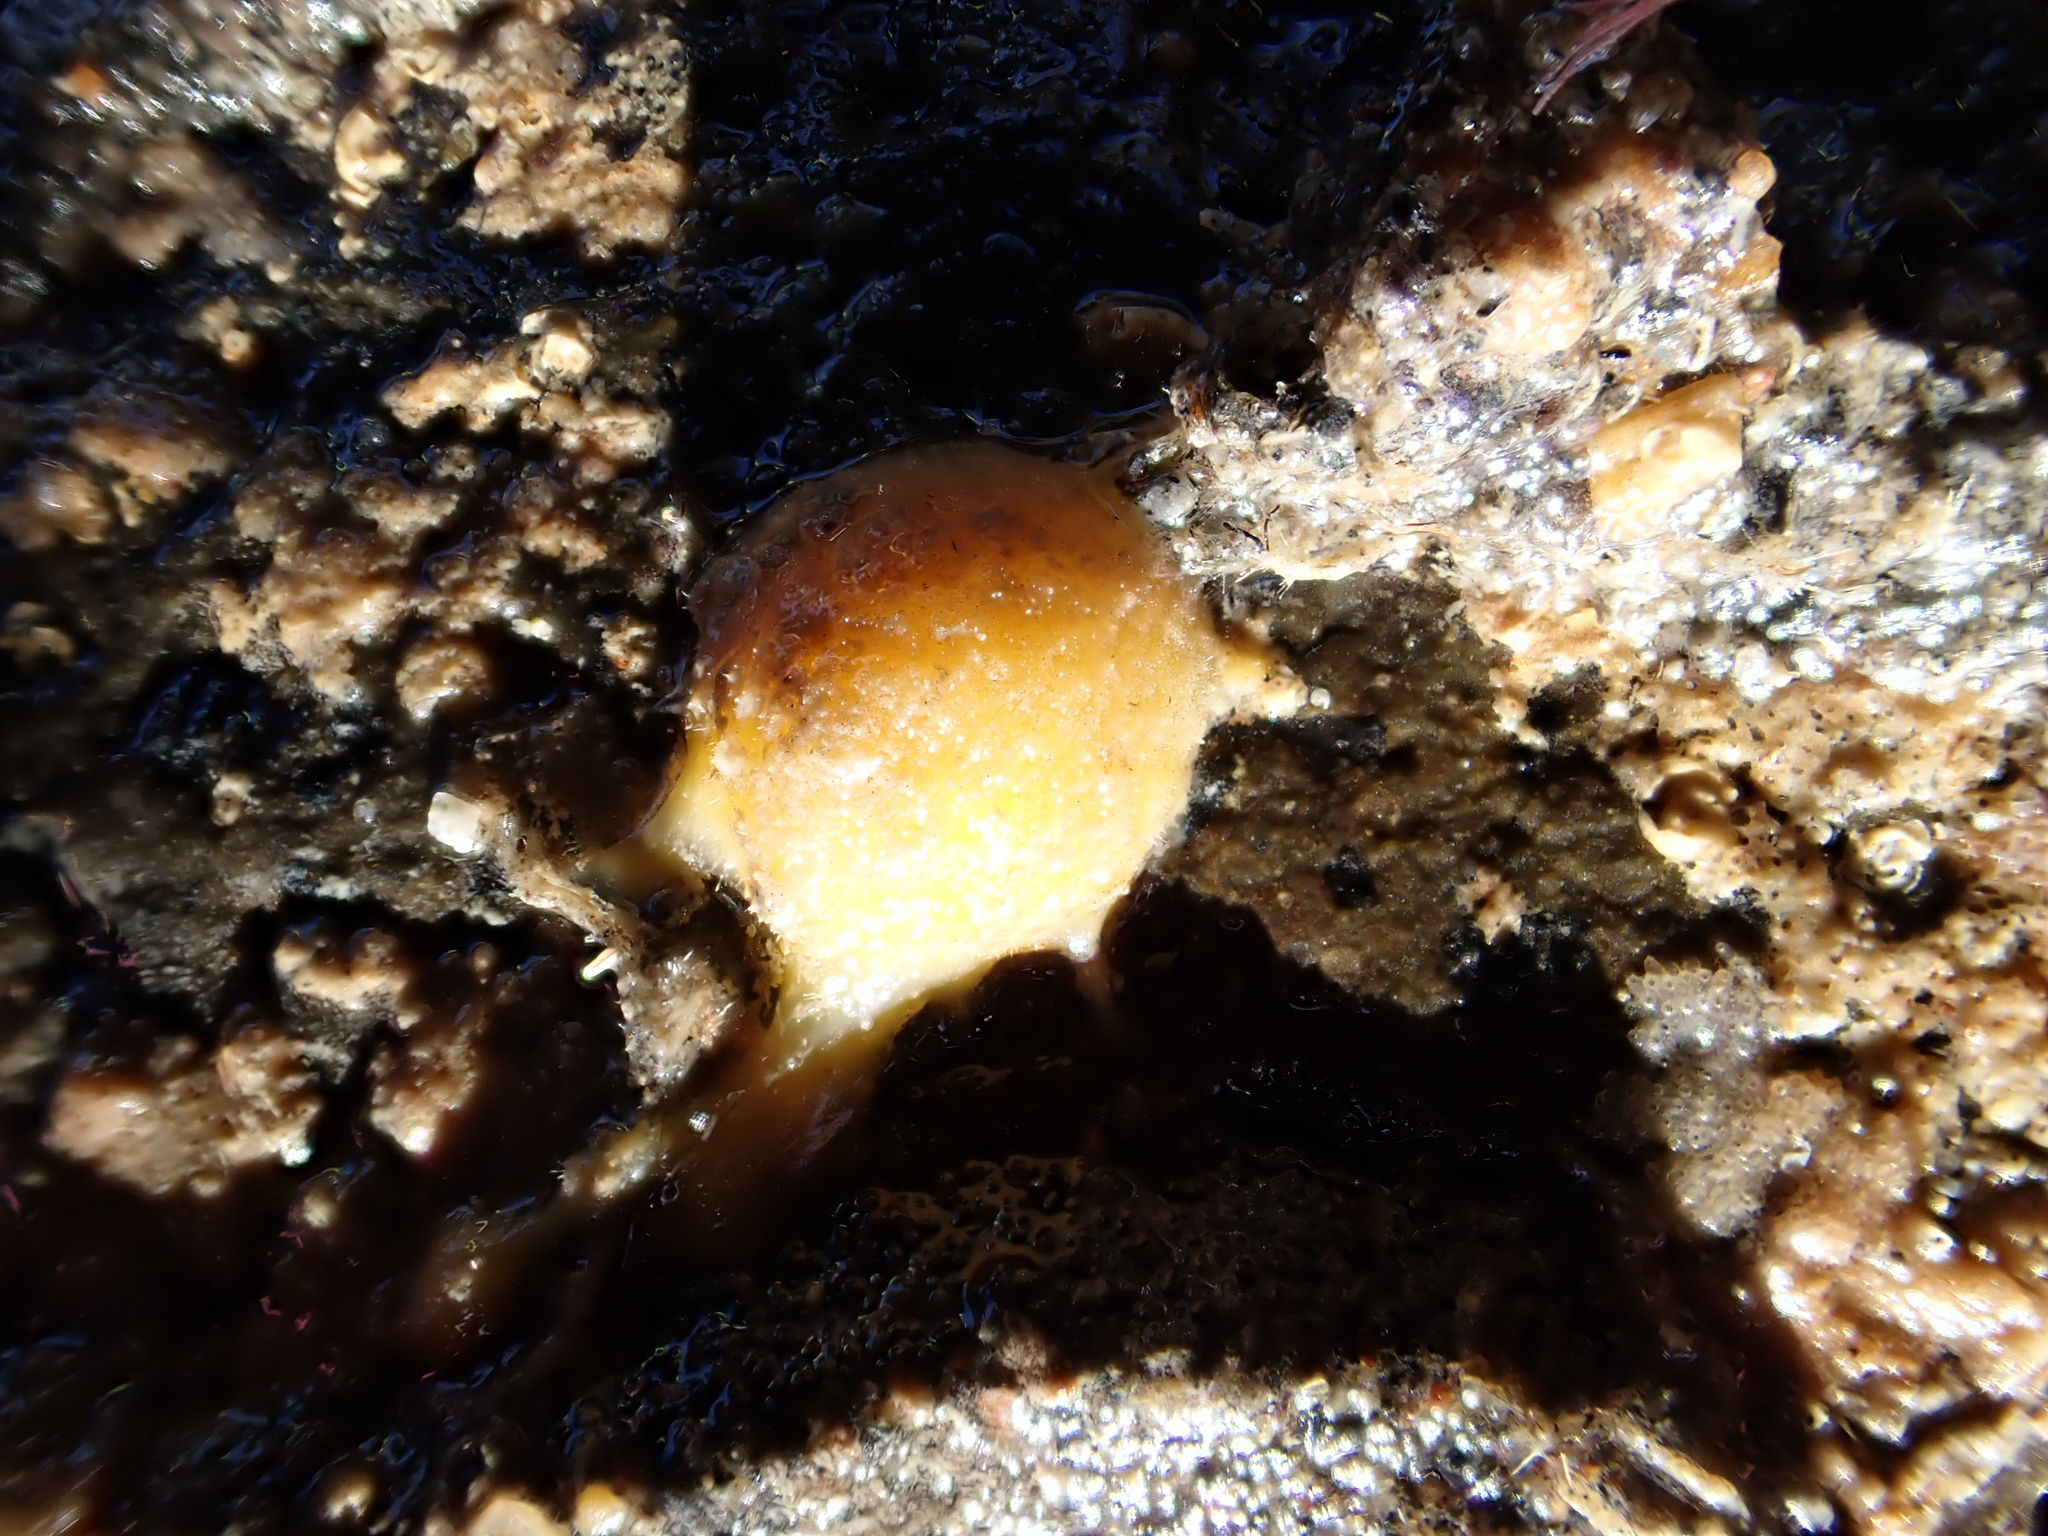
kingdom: Animalia
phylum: Porifera
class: Demospongiae
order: Tethyida
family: Tethyidae
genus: Tethya
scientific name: Tethya stolonifera
